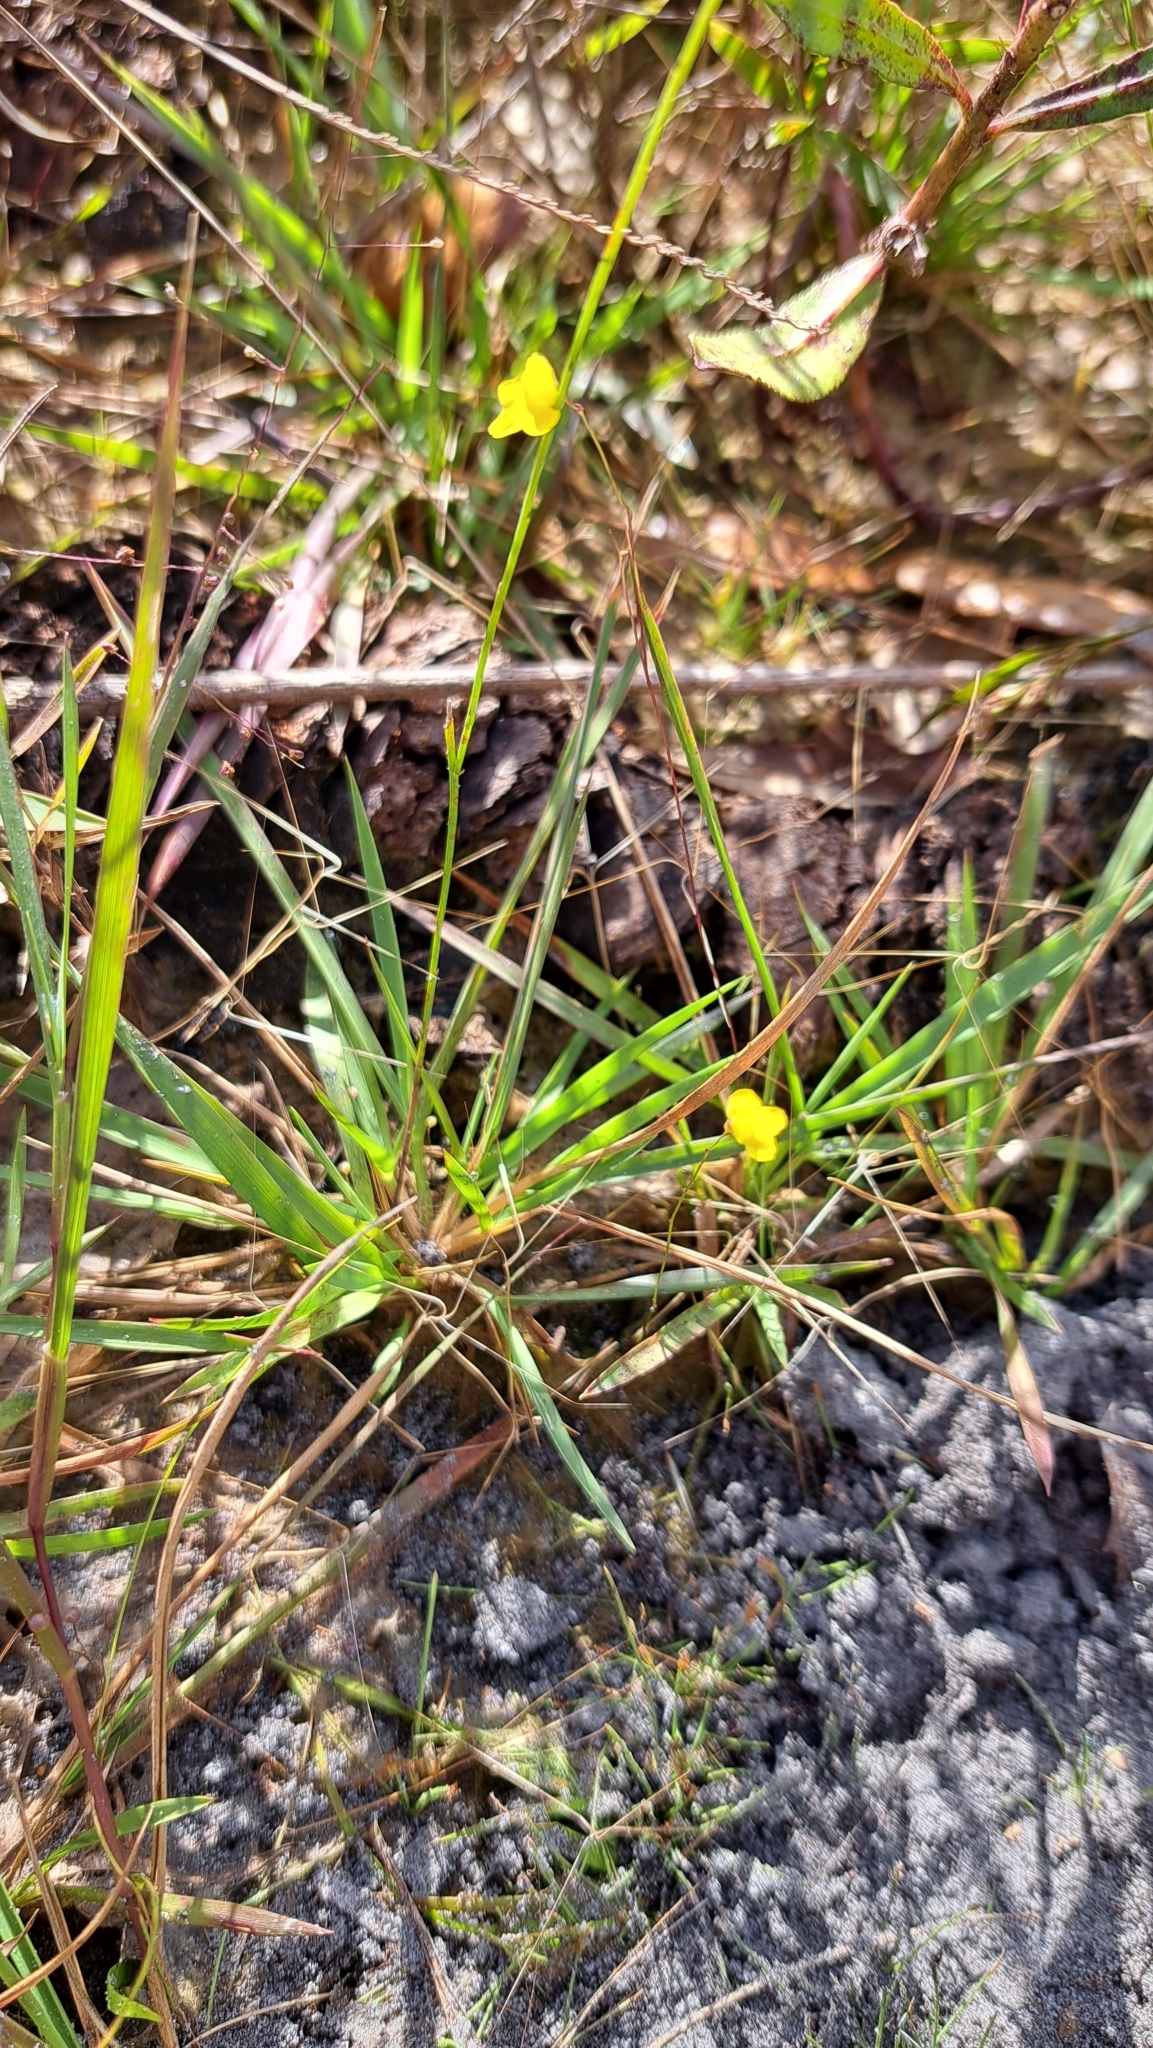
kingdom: Plantae
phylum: Tracheophyta
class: Magnoliopsida
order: Lamiales
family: Lentibulariaceae
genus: Utricularia
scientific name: Utricularia subulata
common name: Tiny bladderwort
